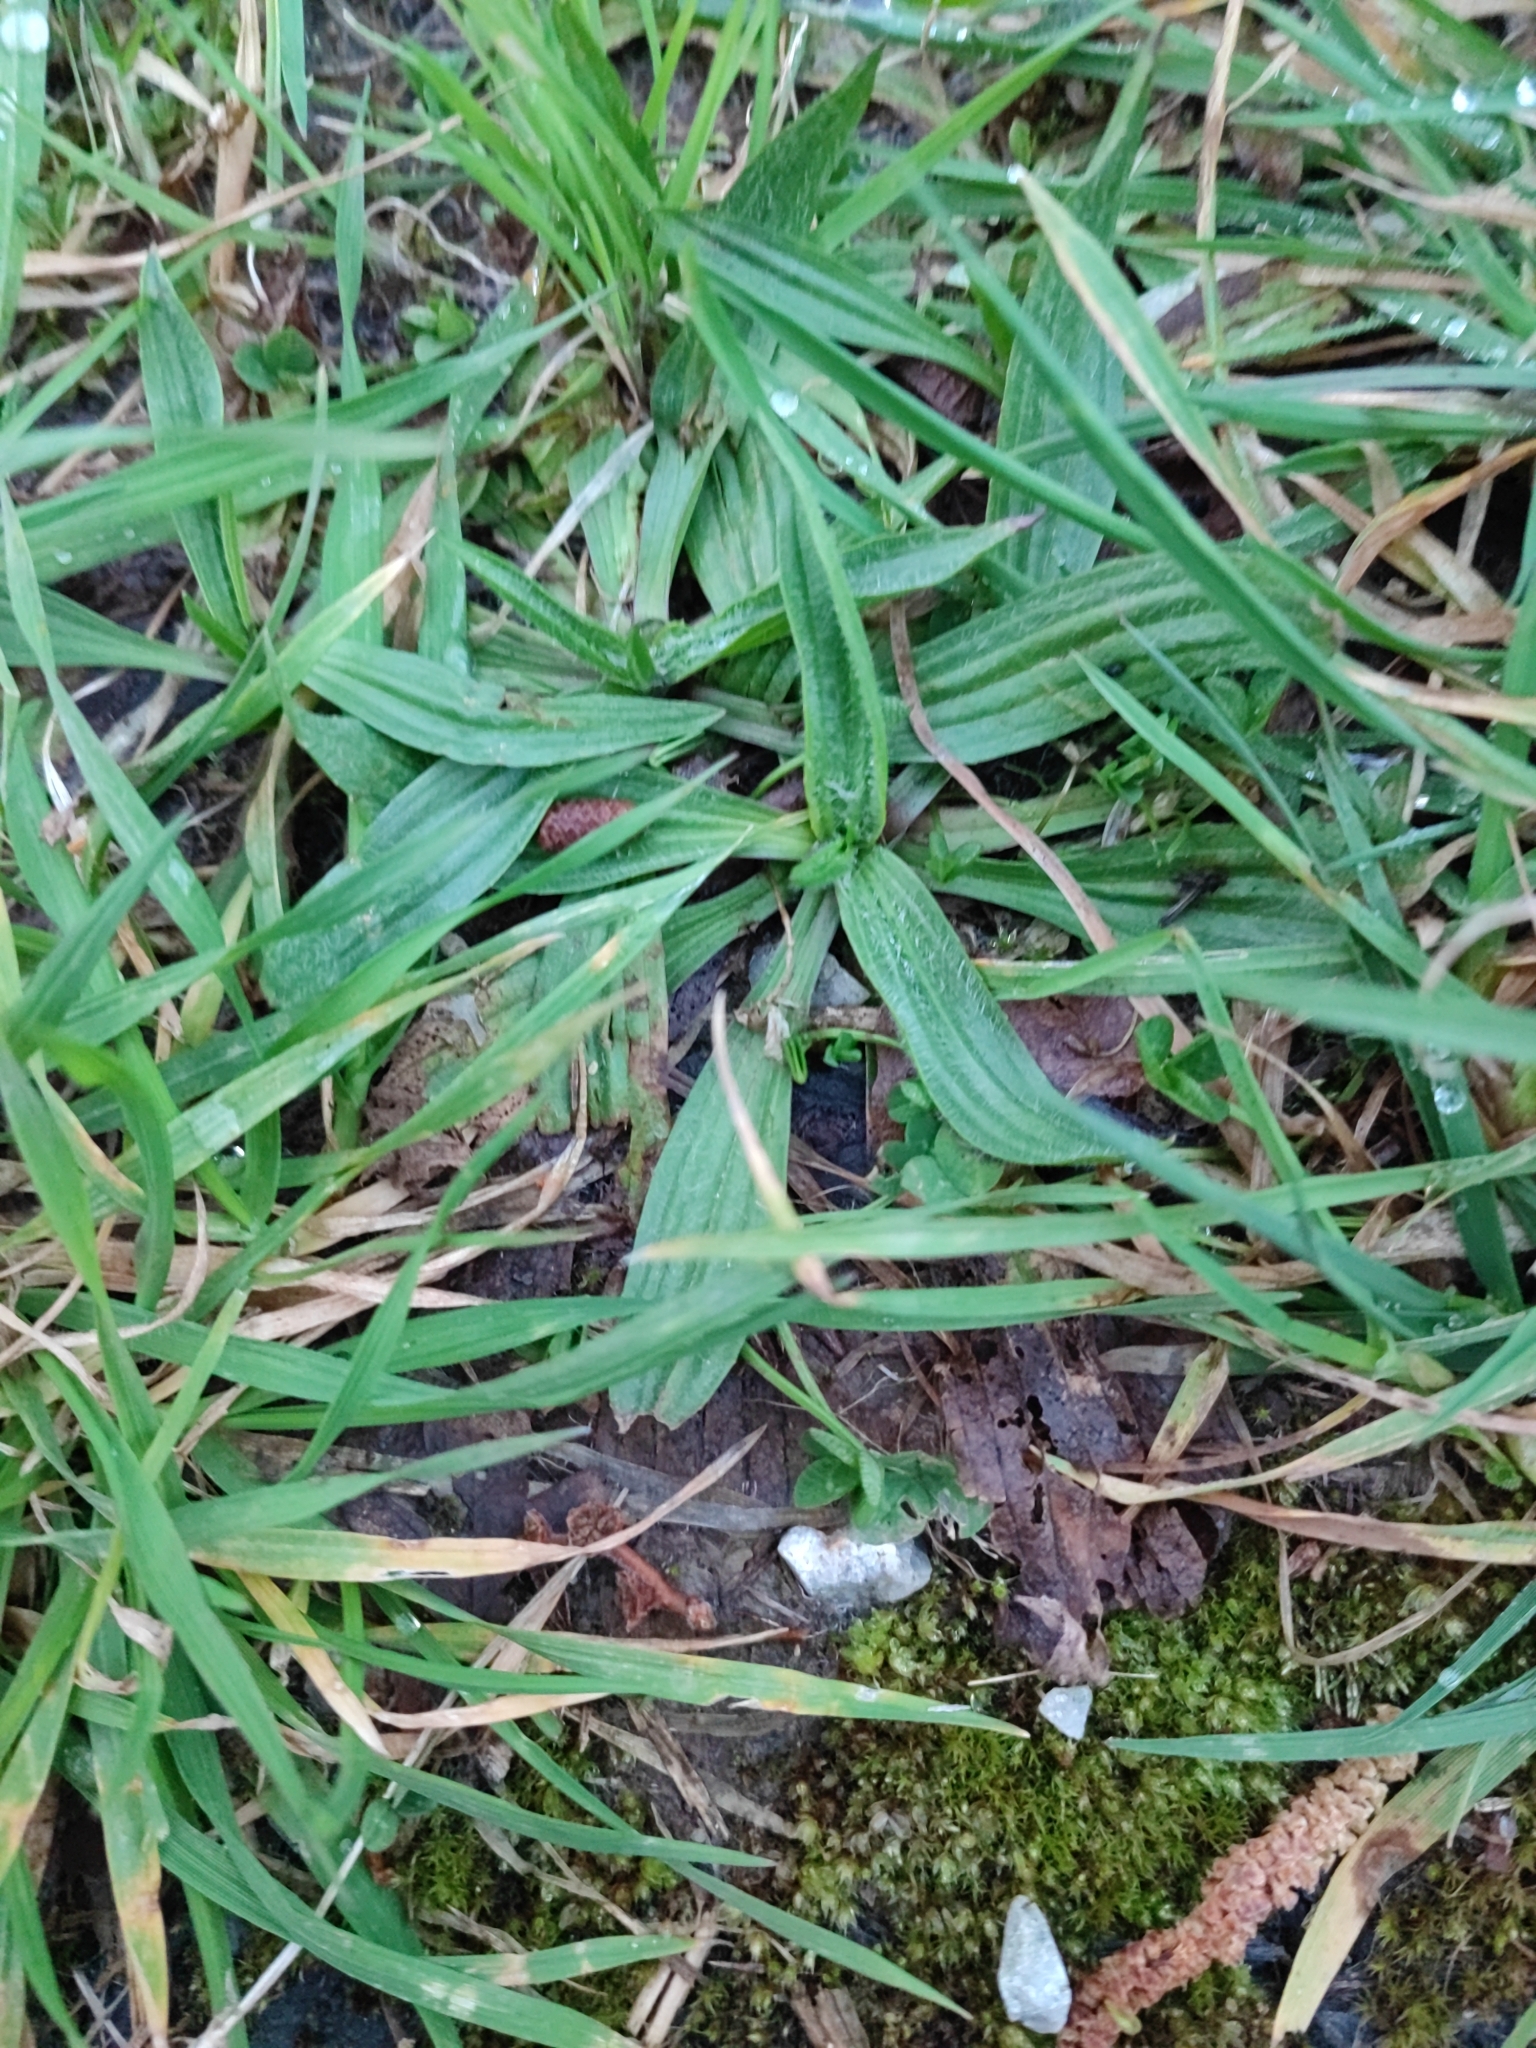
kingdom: Plantae
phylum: Tracheophyta
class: Magnoliopsida
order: Lamiales
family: Plantaginaceae
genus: Plantago
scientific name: Plantago lanceolata
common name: Ribwort plantain
